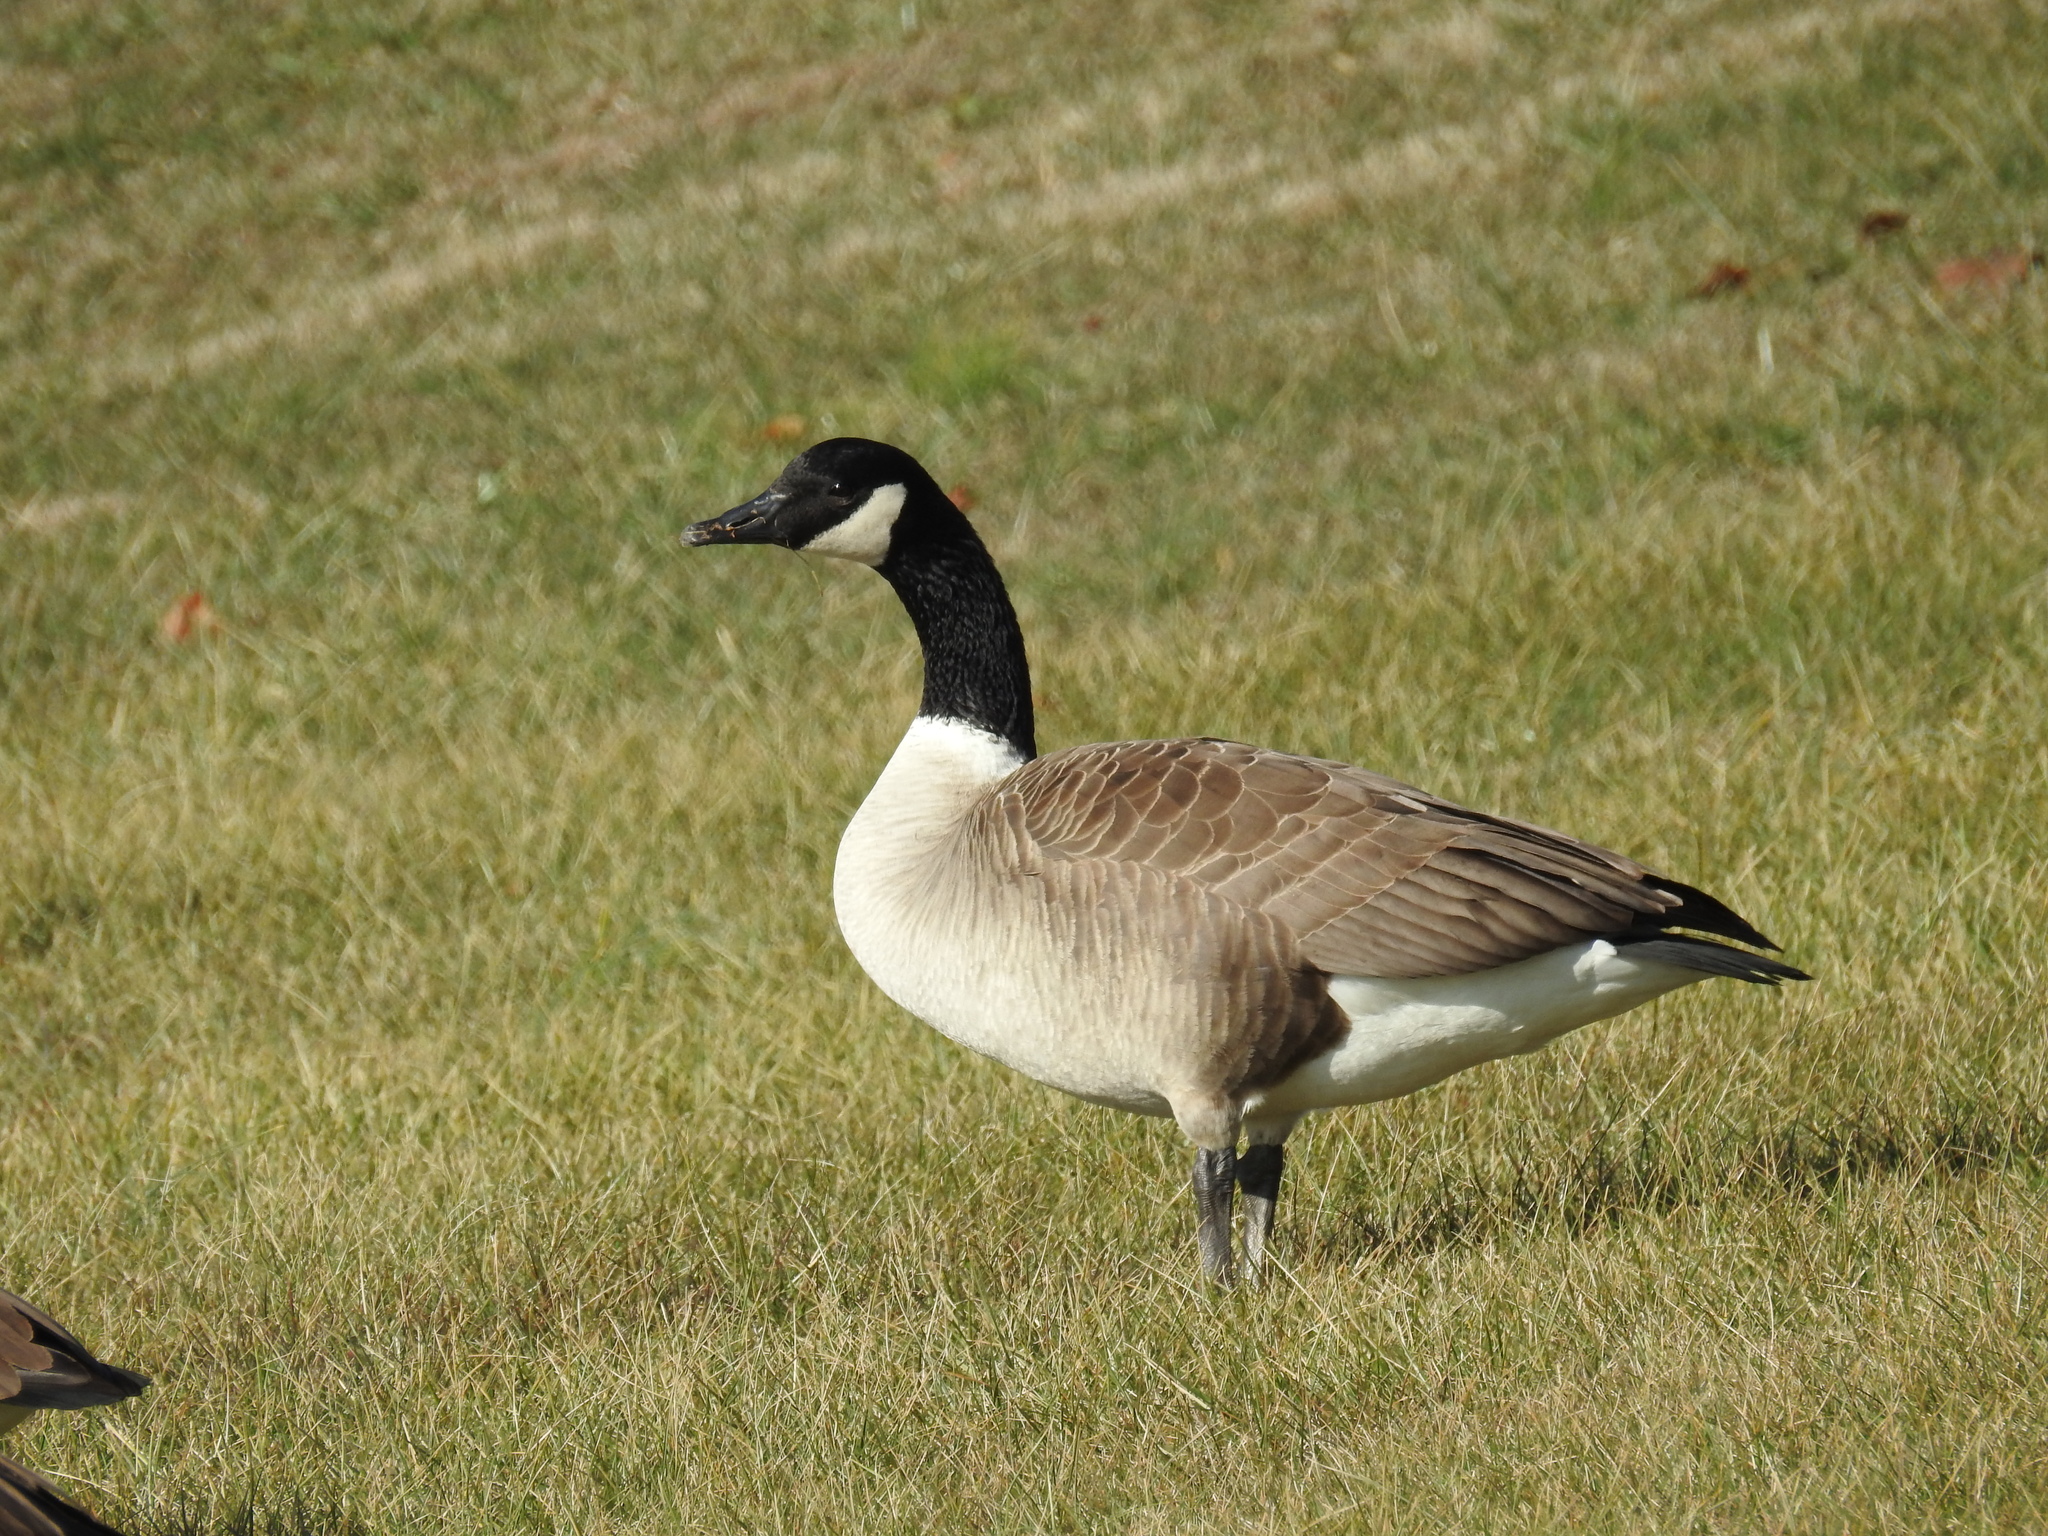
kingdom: Animalia
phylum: Chordata
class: Aves
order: Anseriformes
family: Anatidae
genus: Branta
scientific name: Branta canadensis
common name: Canada goose
